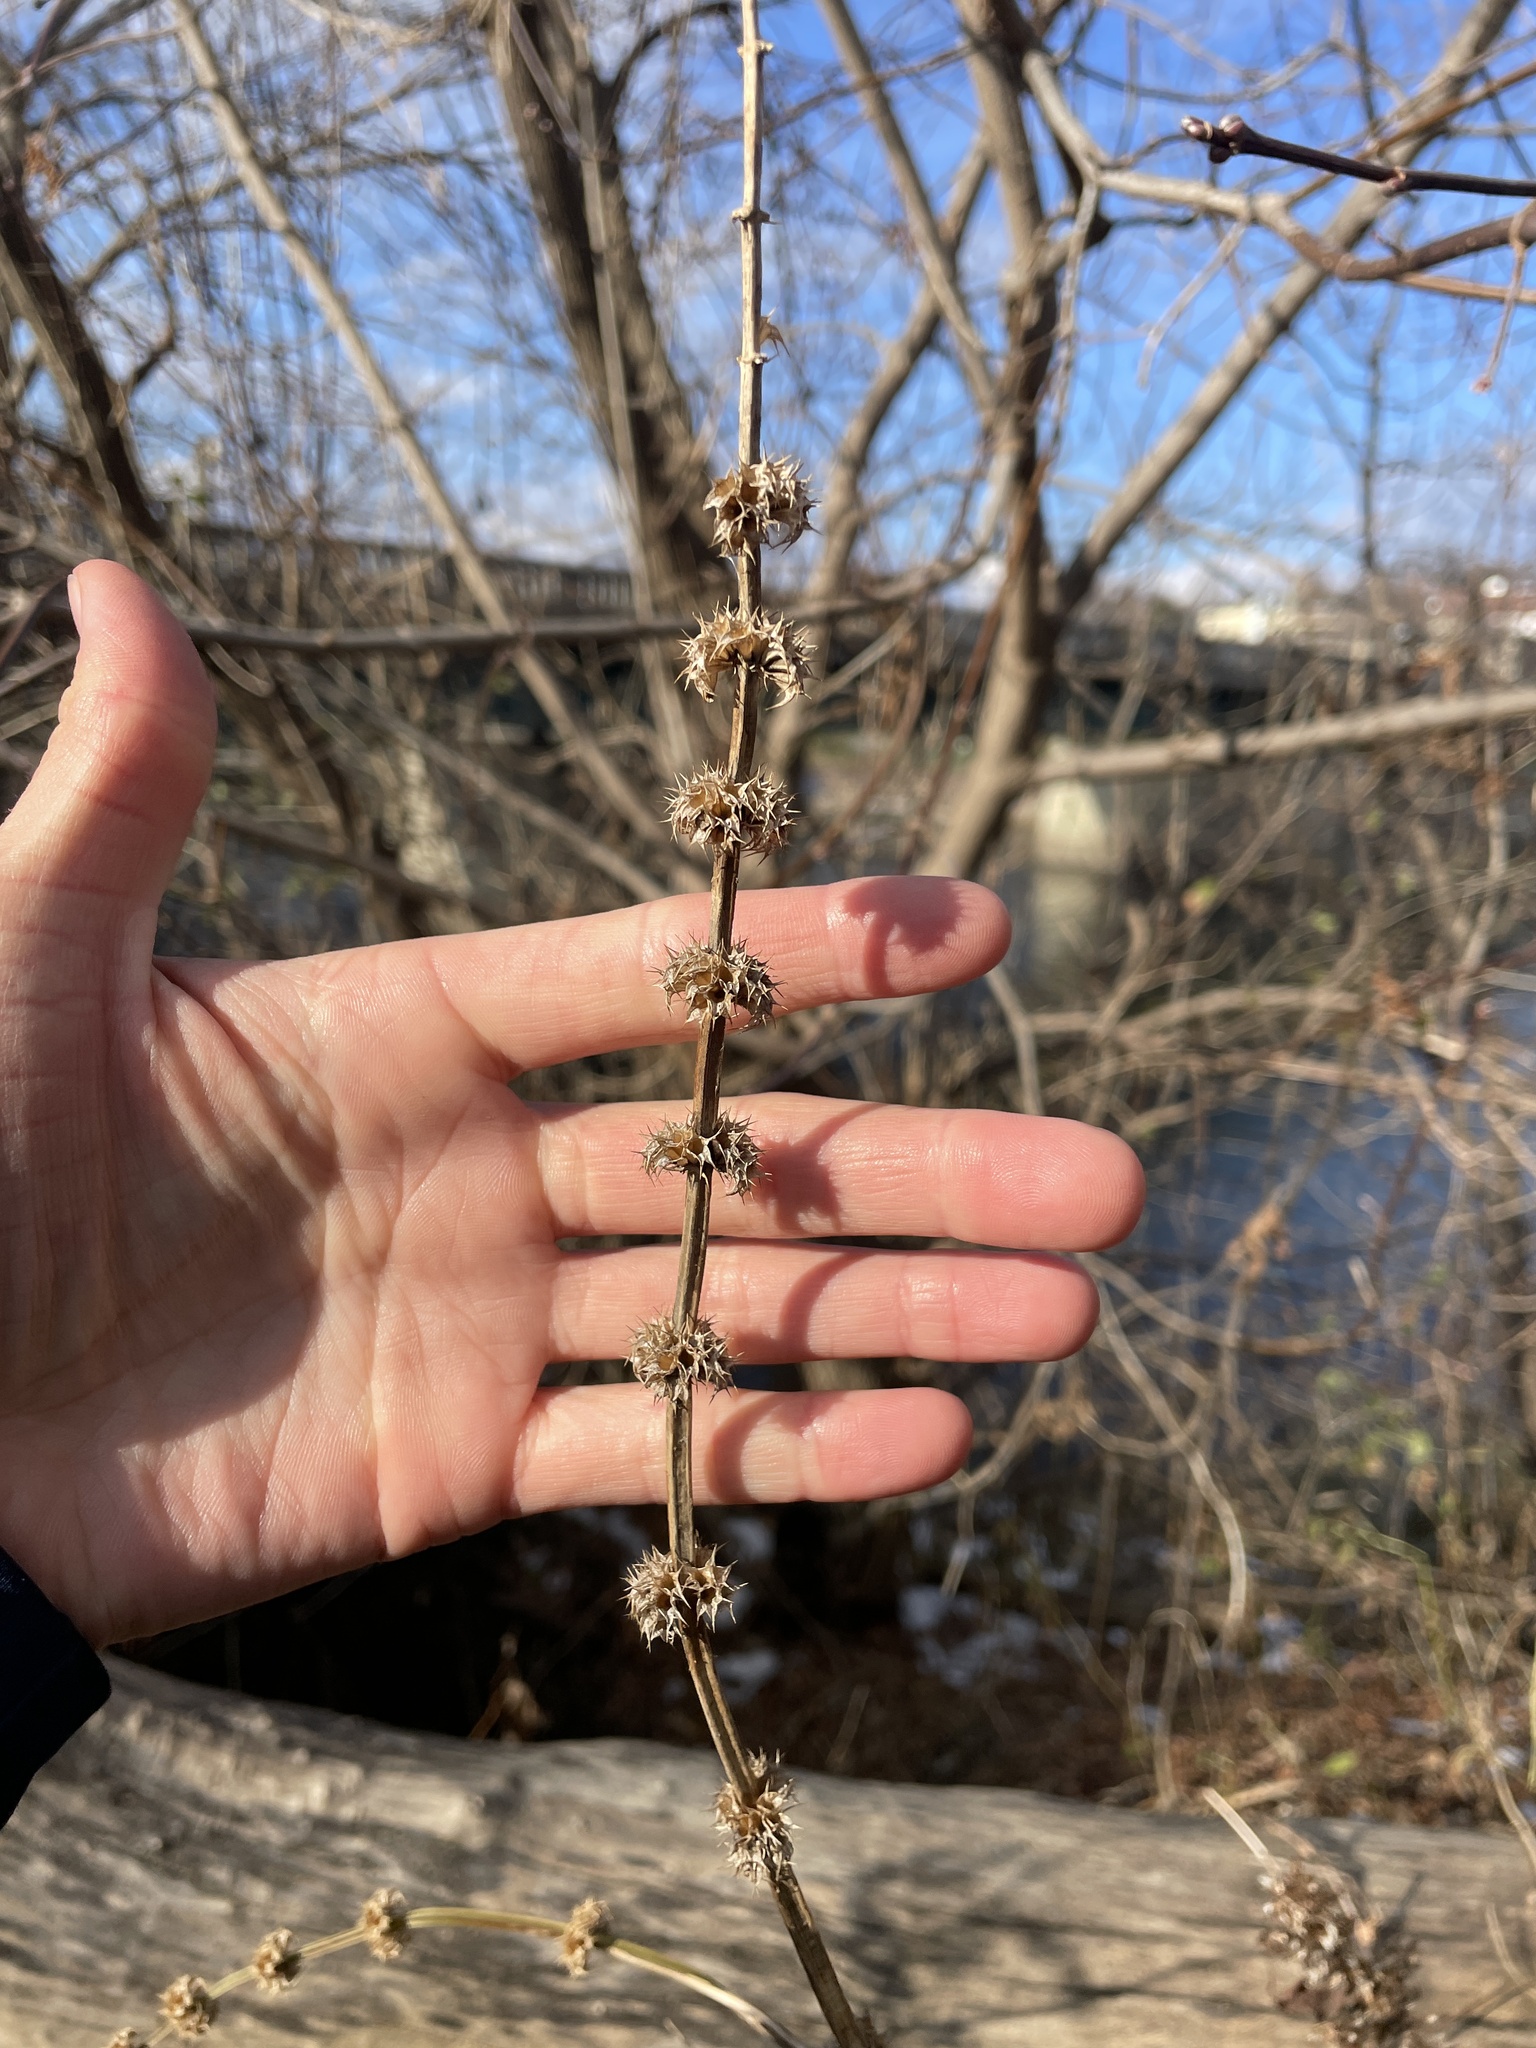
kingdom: Plantae
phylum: Tracheophyta
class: Magnoliopsida
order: Lamiales
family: Lamiaceae
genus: Leonurus
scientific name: Leonurus cardiaca
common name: Motherwort
